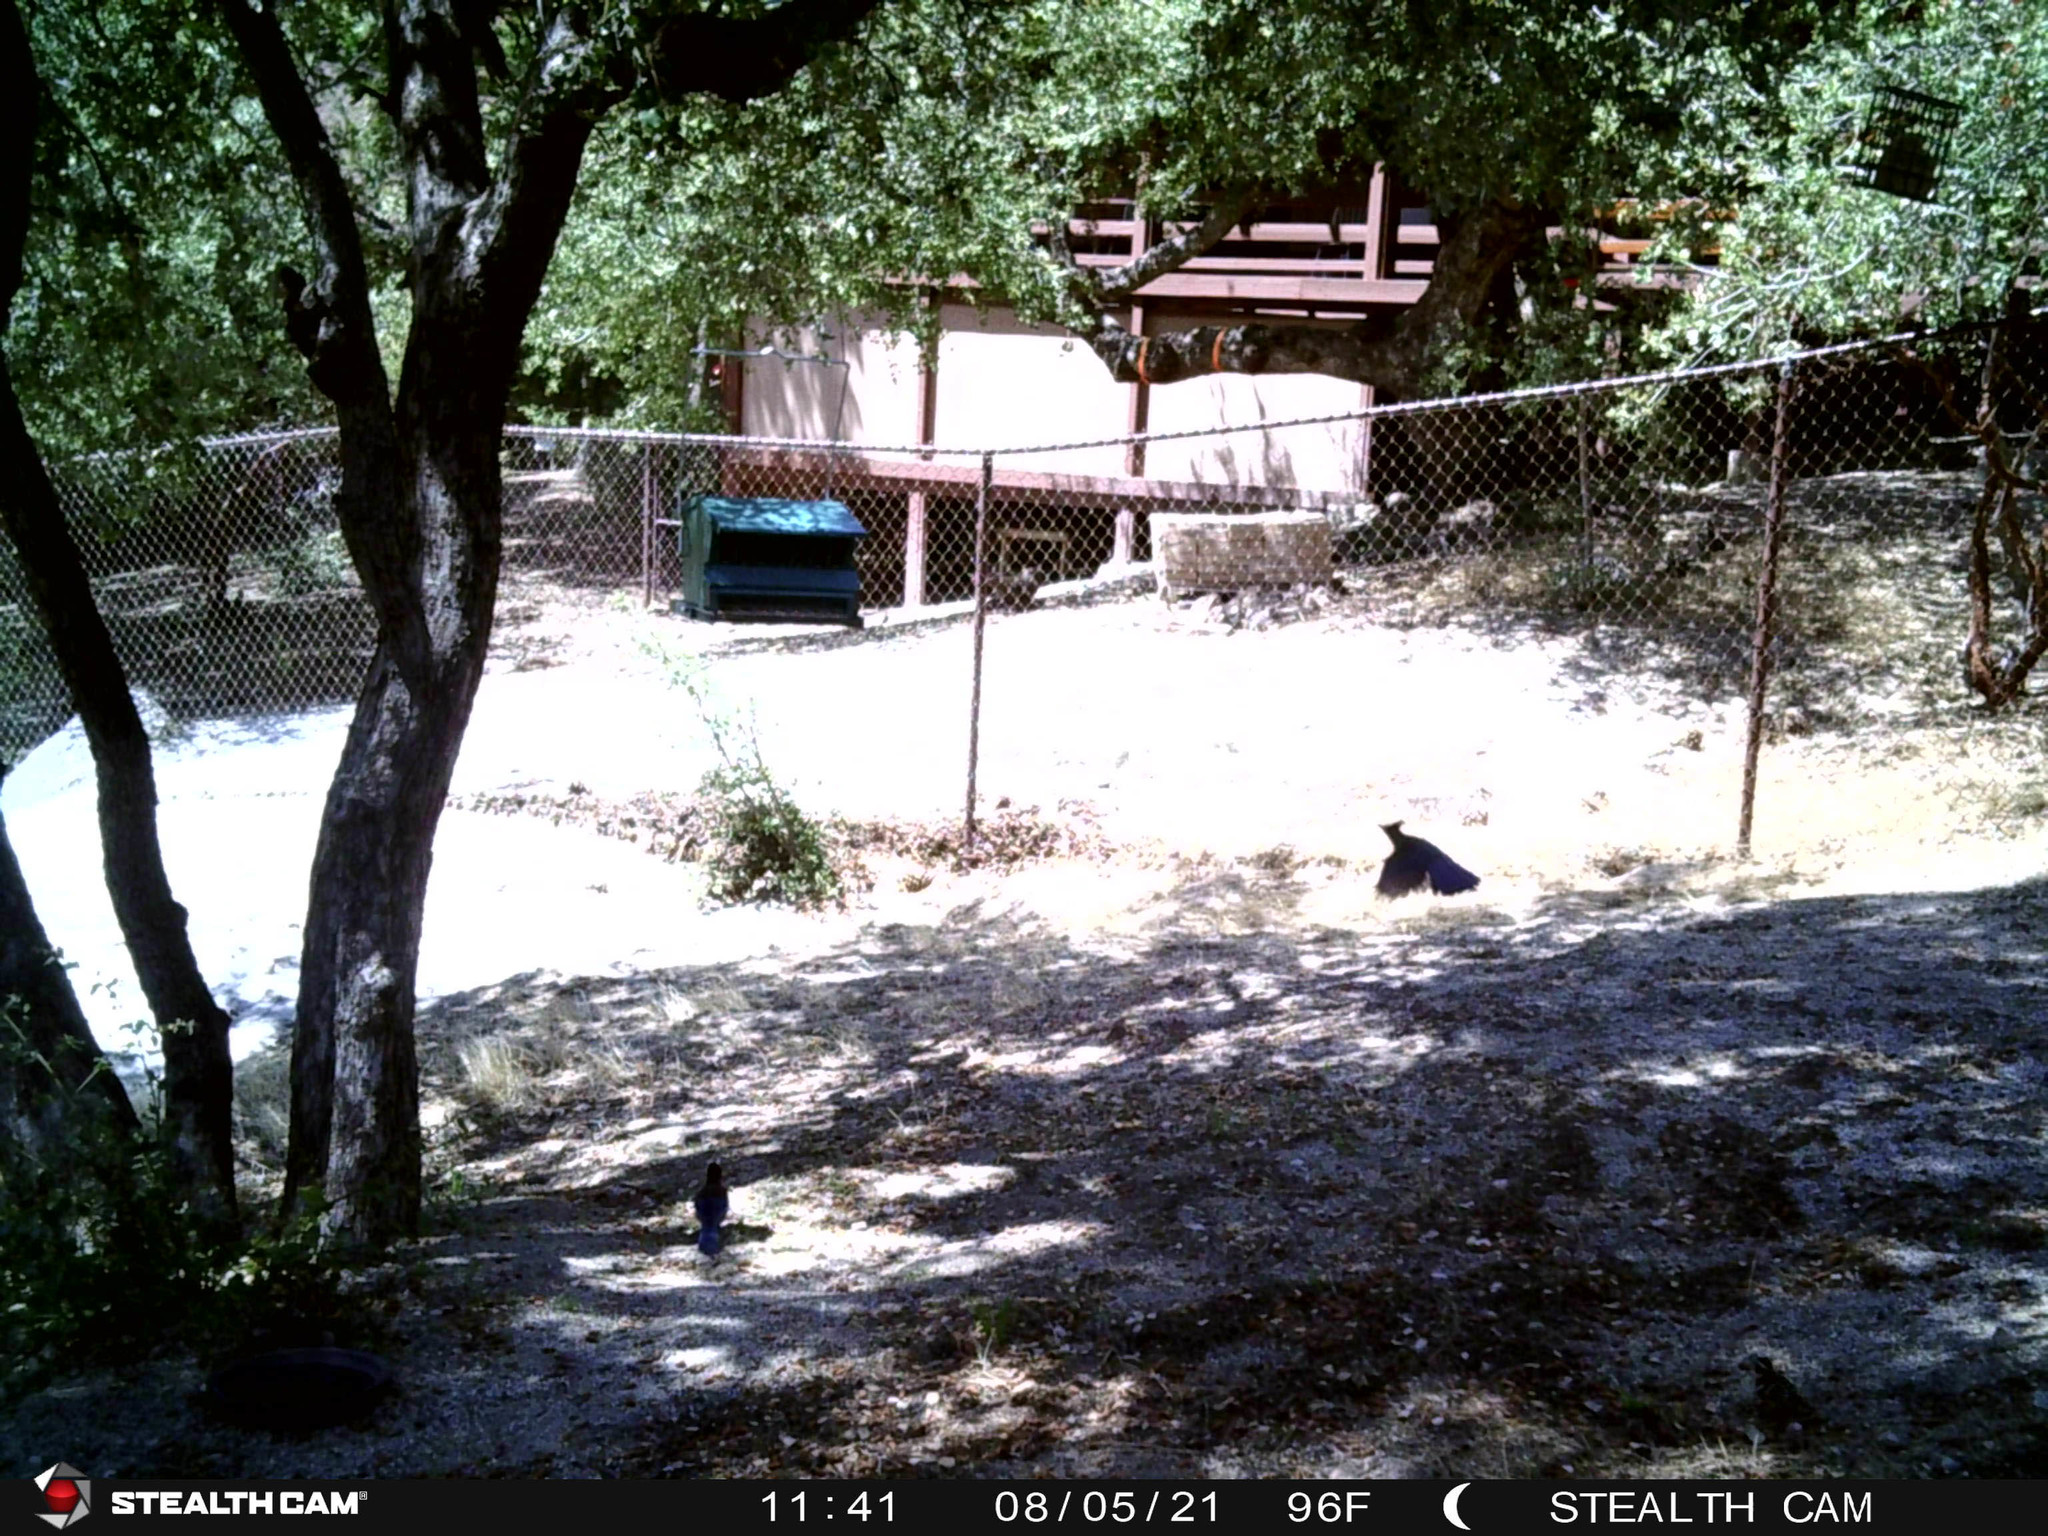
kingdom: Animalia
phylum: Chordata
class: Aves
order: Passeriformes
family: Corvidae
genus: Cyanocitta
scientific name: Cyanocitta stelleri
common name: Steller's jay
